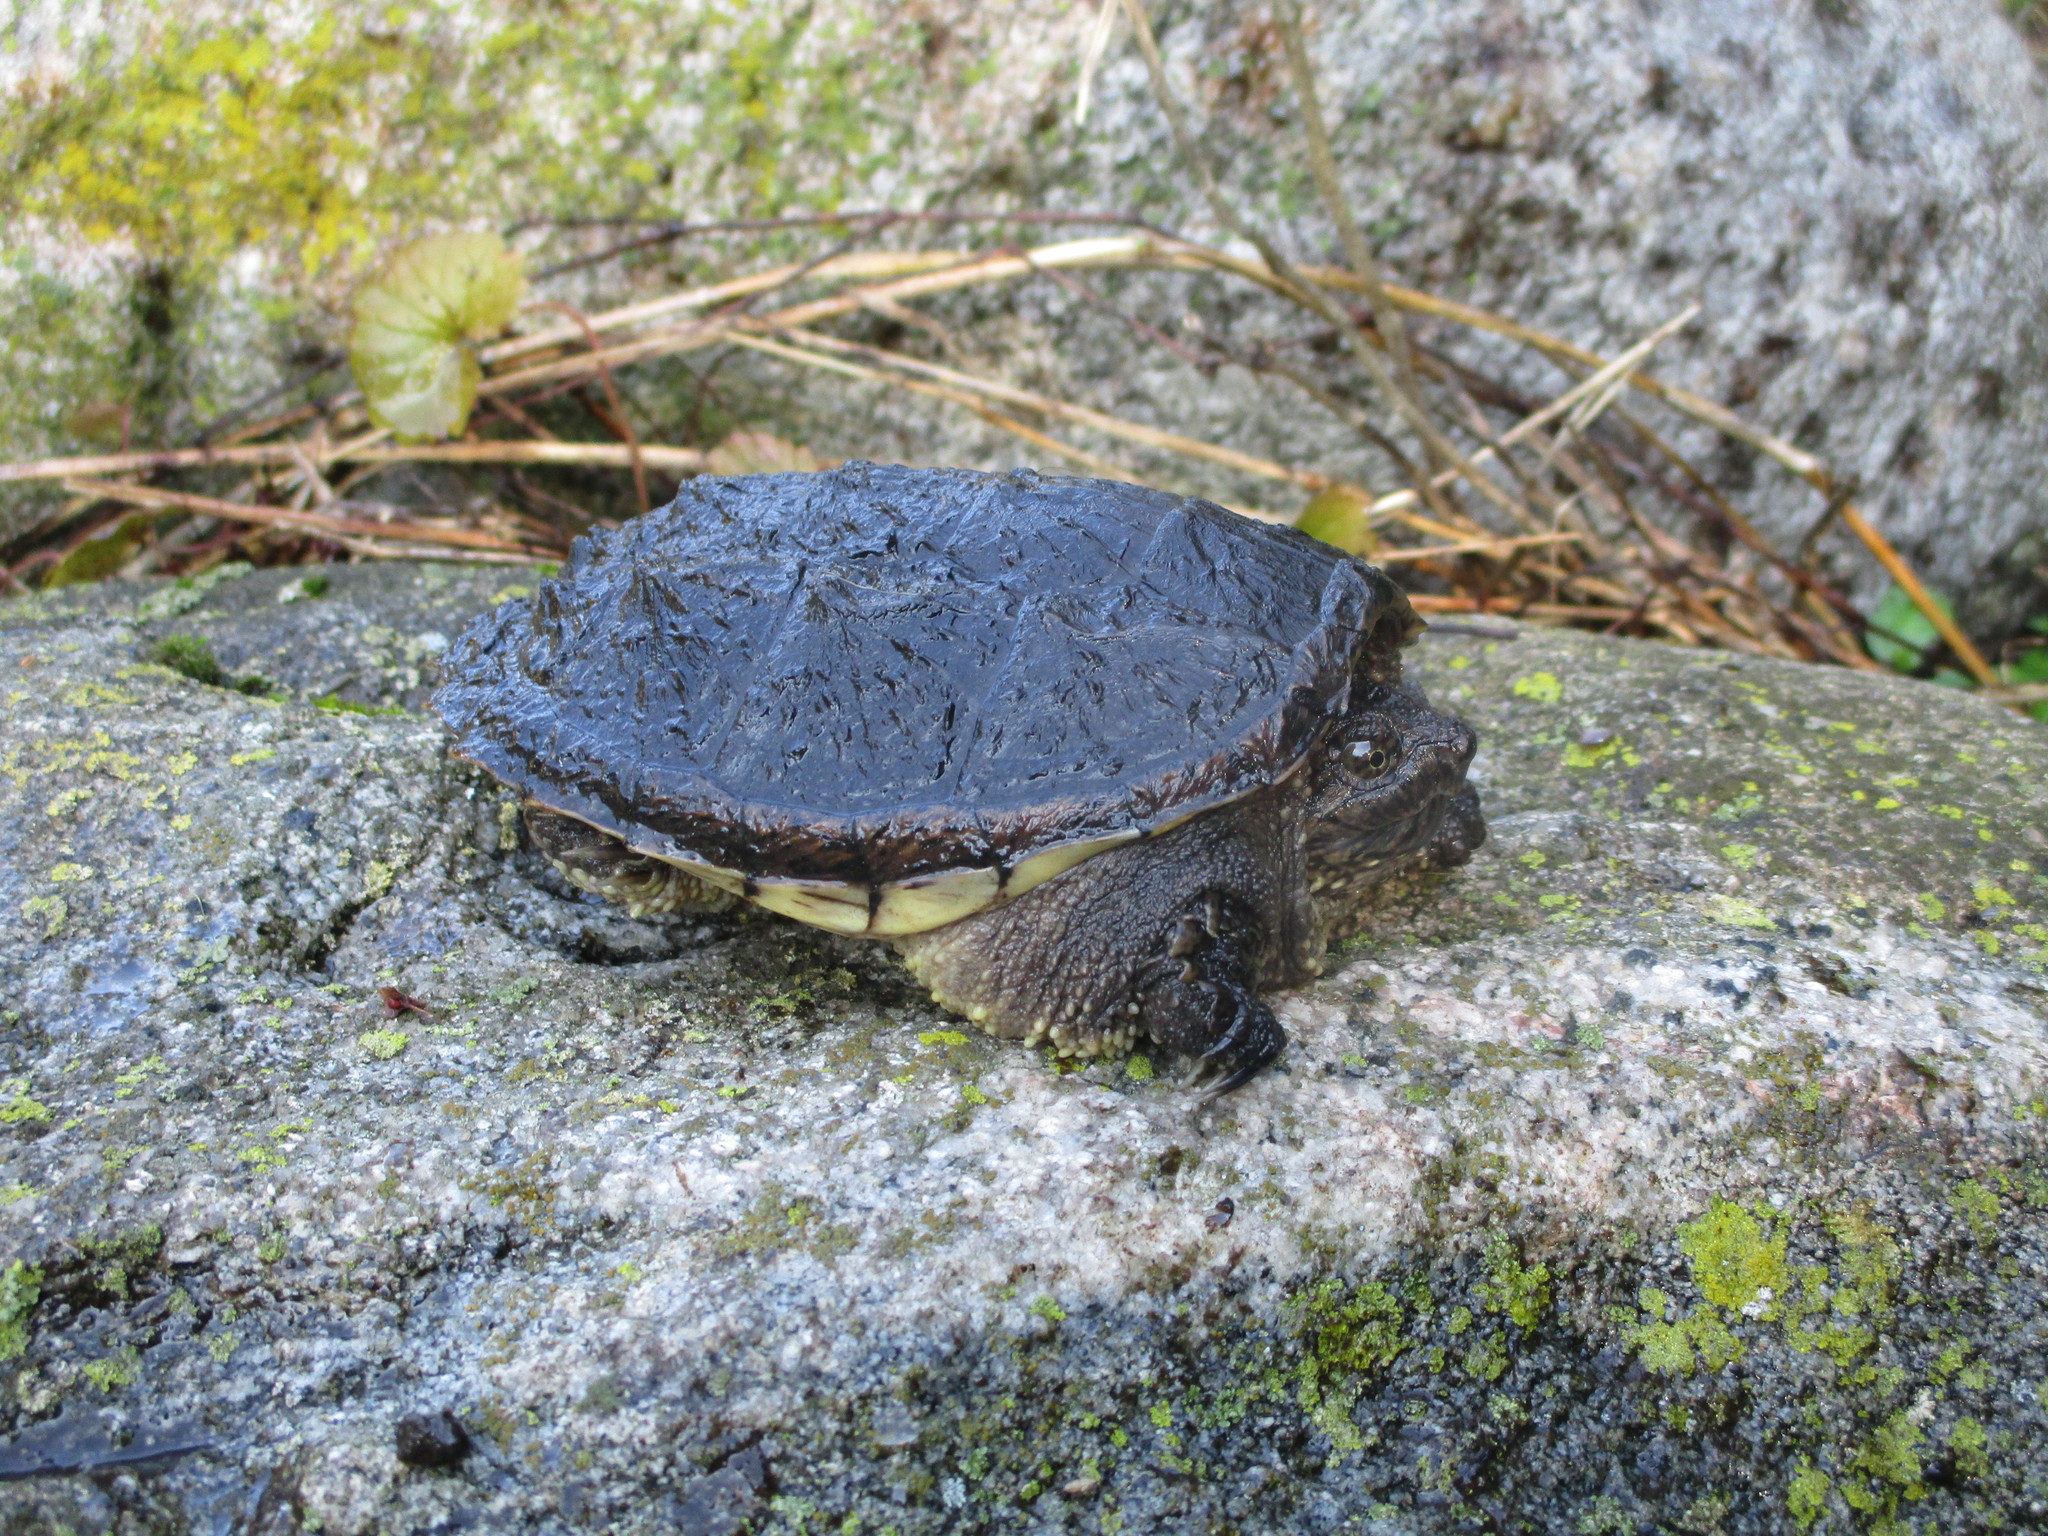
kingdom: Animalia
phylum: Chordata
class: Testudines
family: Chelydridae
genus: Chelydra
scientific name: Chelydra serpentina
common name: Common snapping turtle
